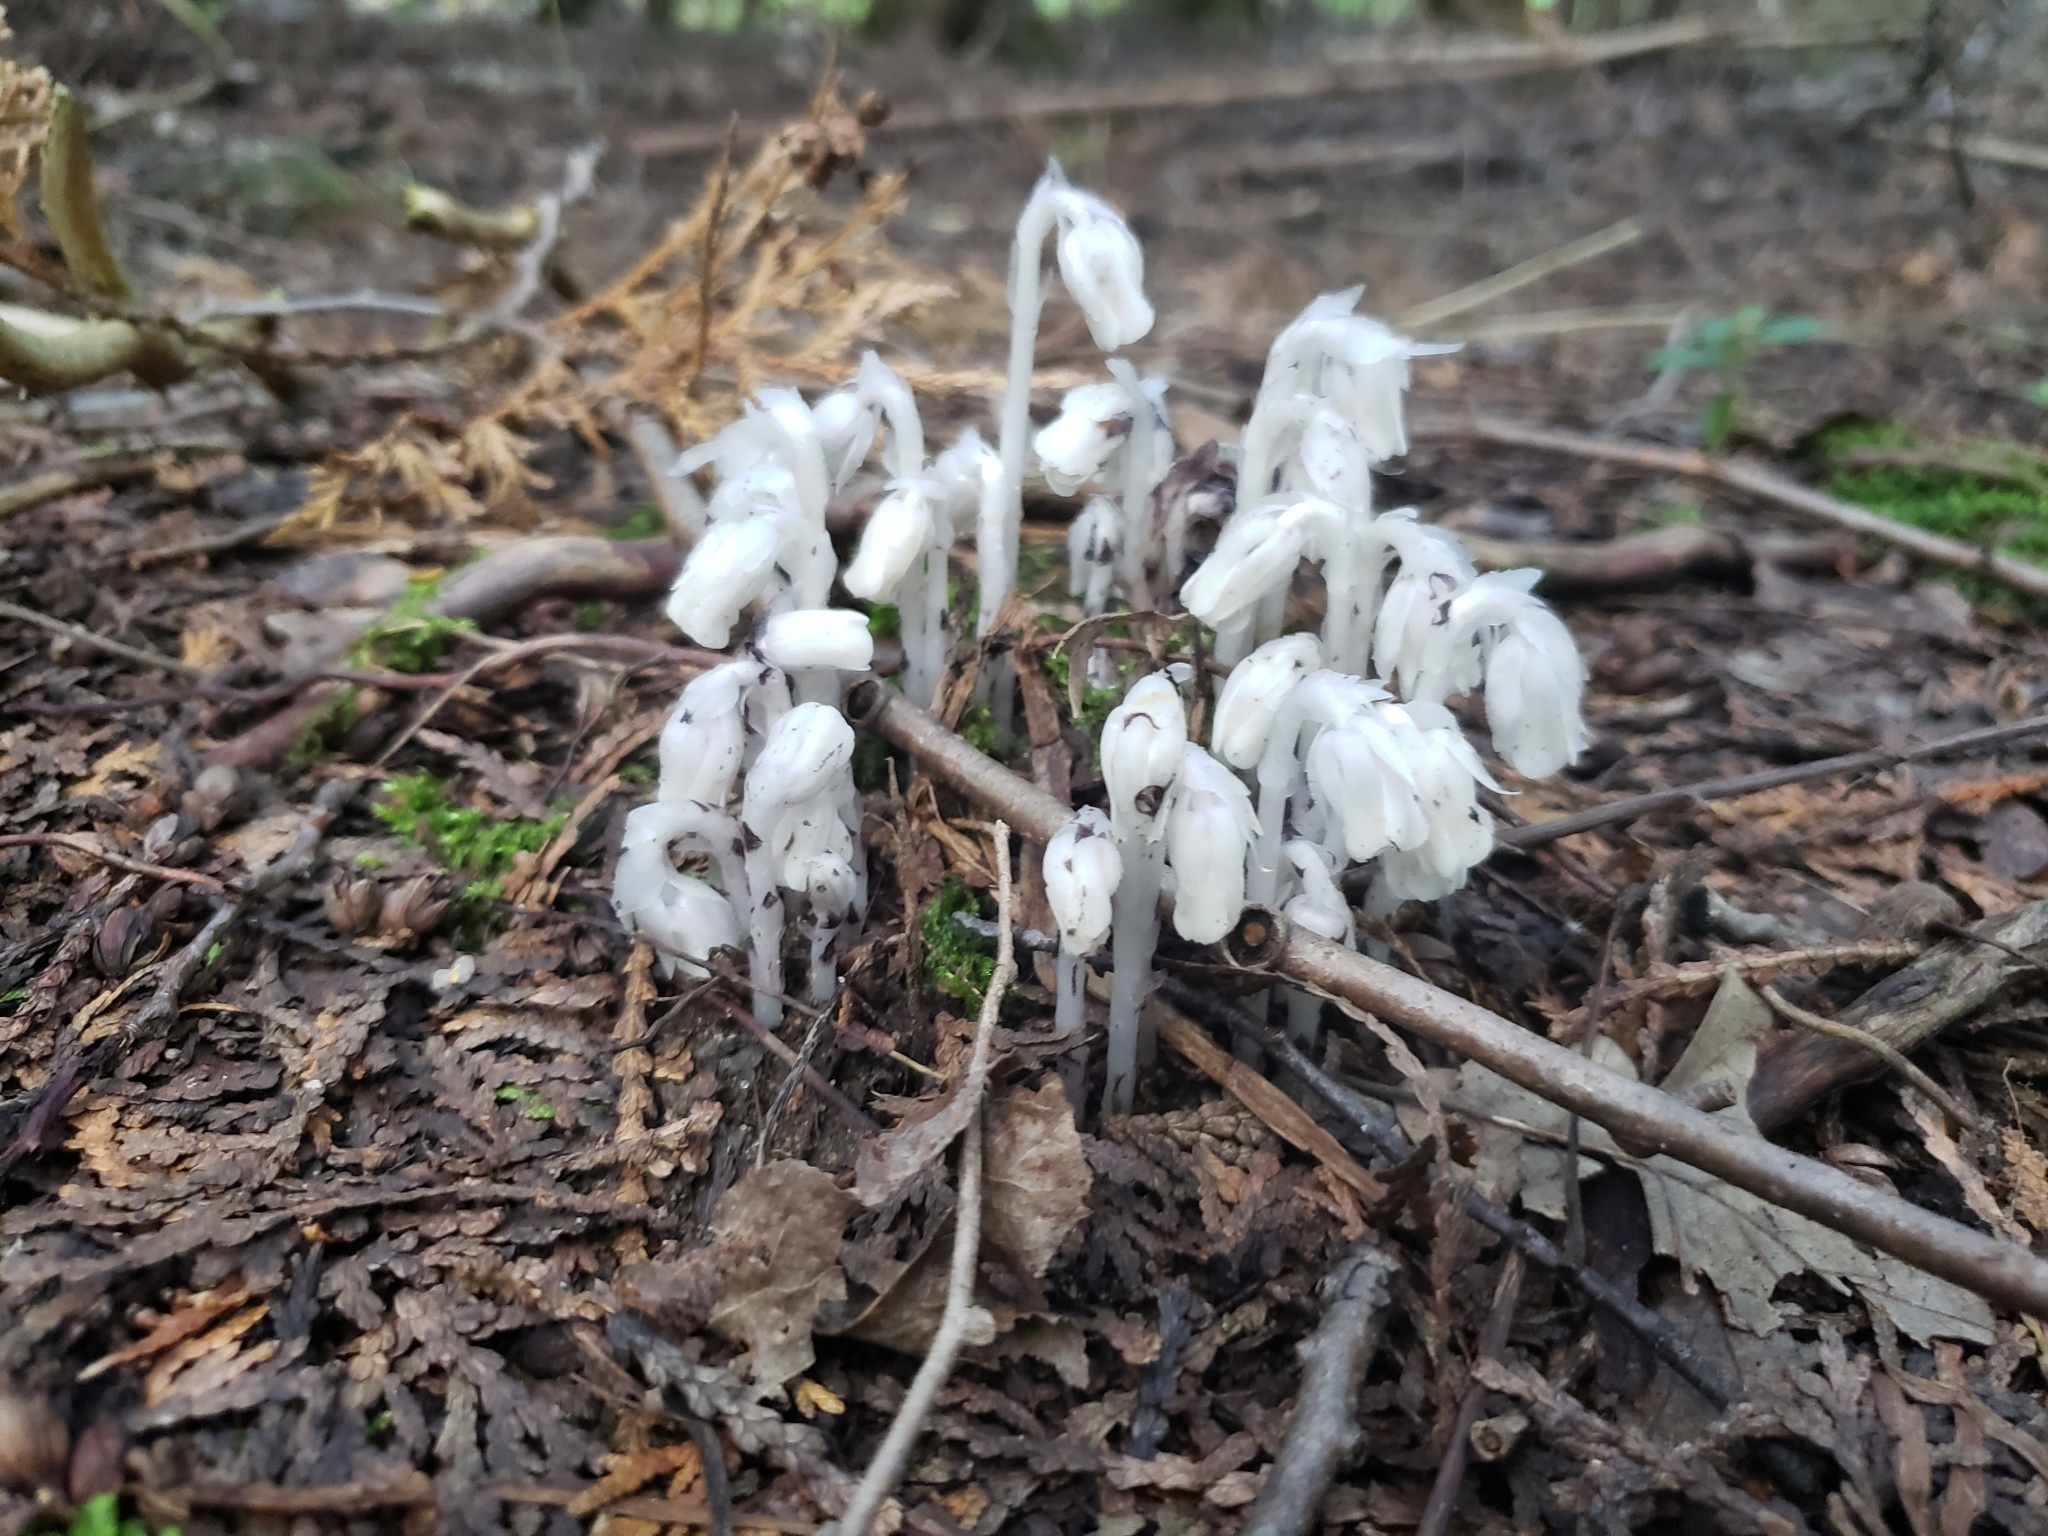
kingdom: Plantae
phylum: Tracheophyta
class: Magnoliopsida
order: Ericales
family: Ericaceae
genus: Monotropa
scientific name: Monotropa uniflora
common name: Convulsion root
